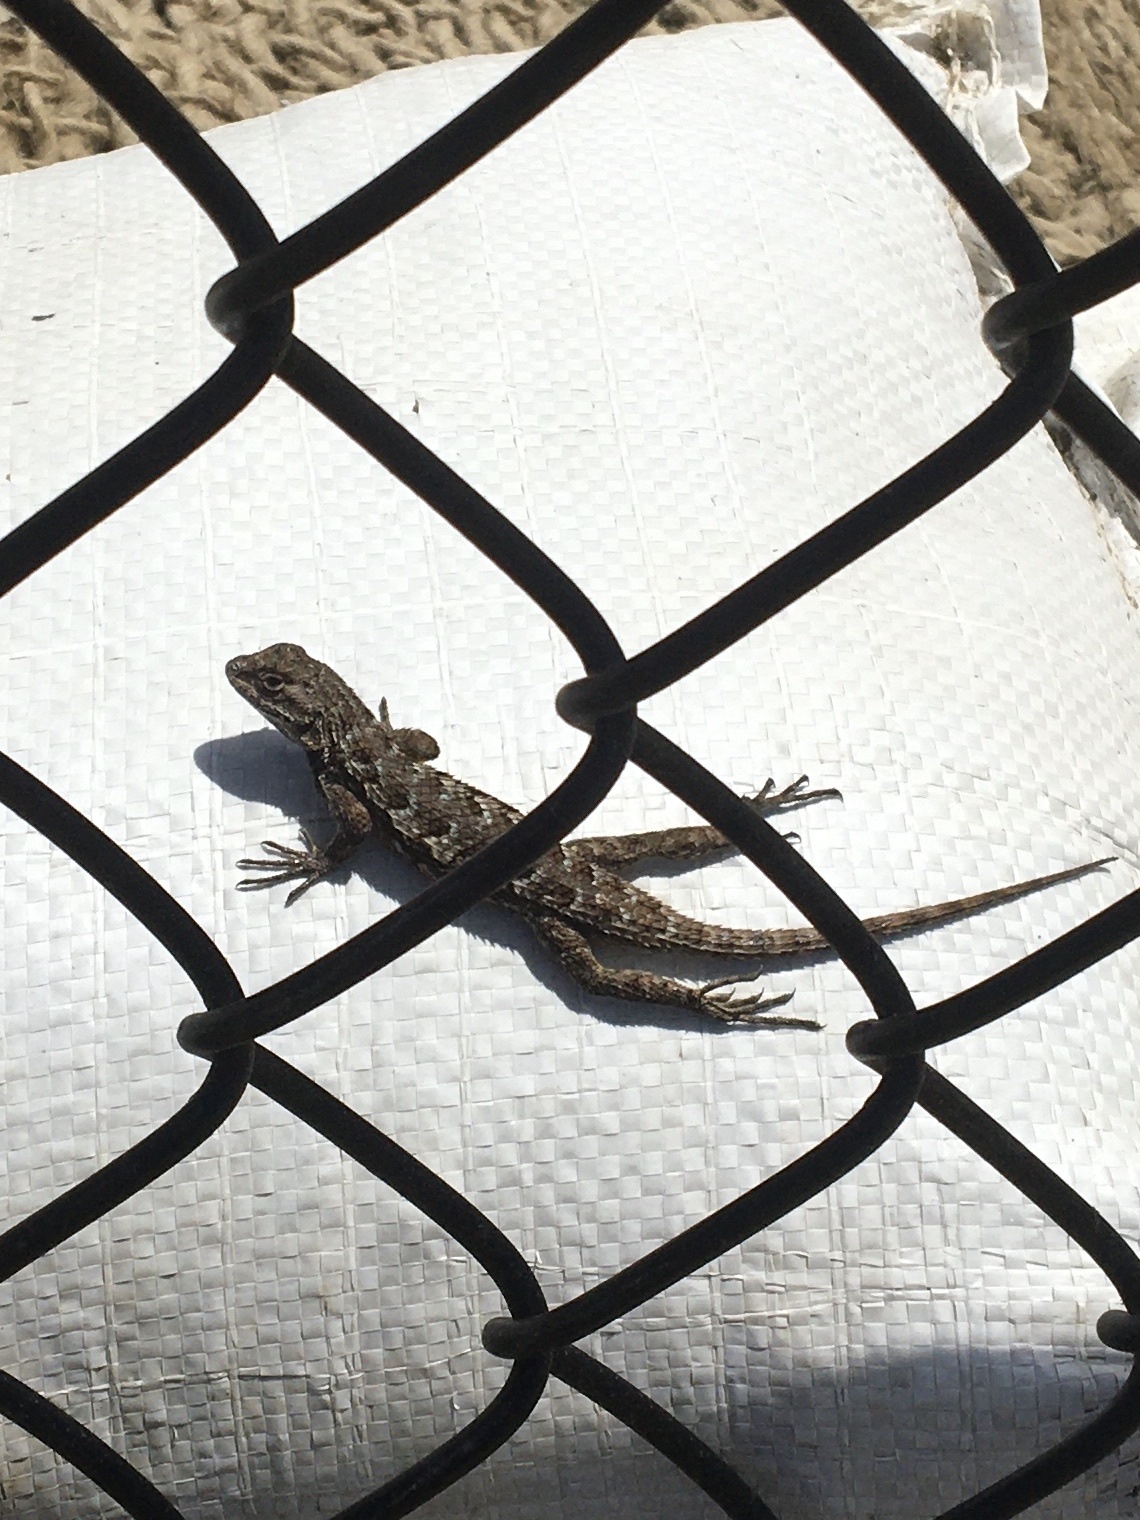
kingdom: Animalia
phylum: Chordata
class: Squamata
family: Phrynosomatidae
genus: Sceloporus
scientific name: Sceloporus occidentalis
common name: Western fence lizard
